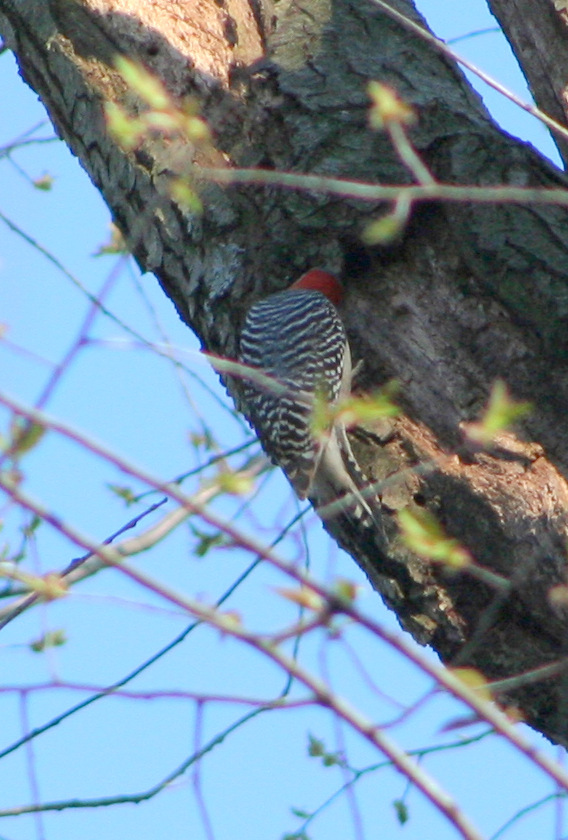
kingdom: Animalia
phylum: Chordata
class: Aves
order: Piciformes
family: Picidae
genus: Melanerpes
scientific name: Melanerpes carolinus
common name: Red-bellied woodpecker
